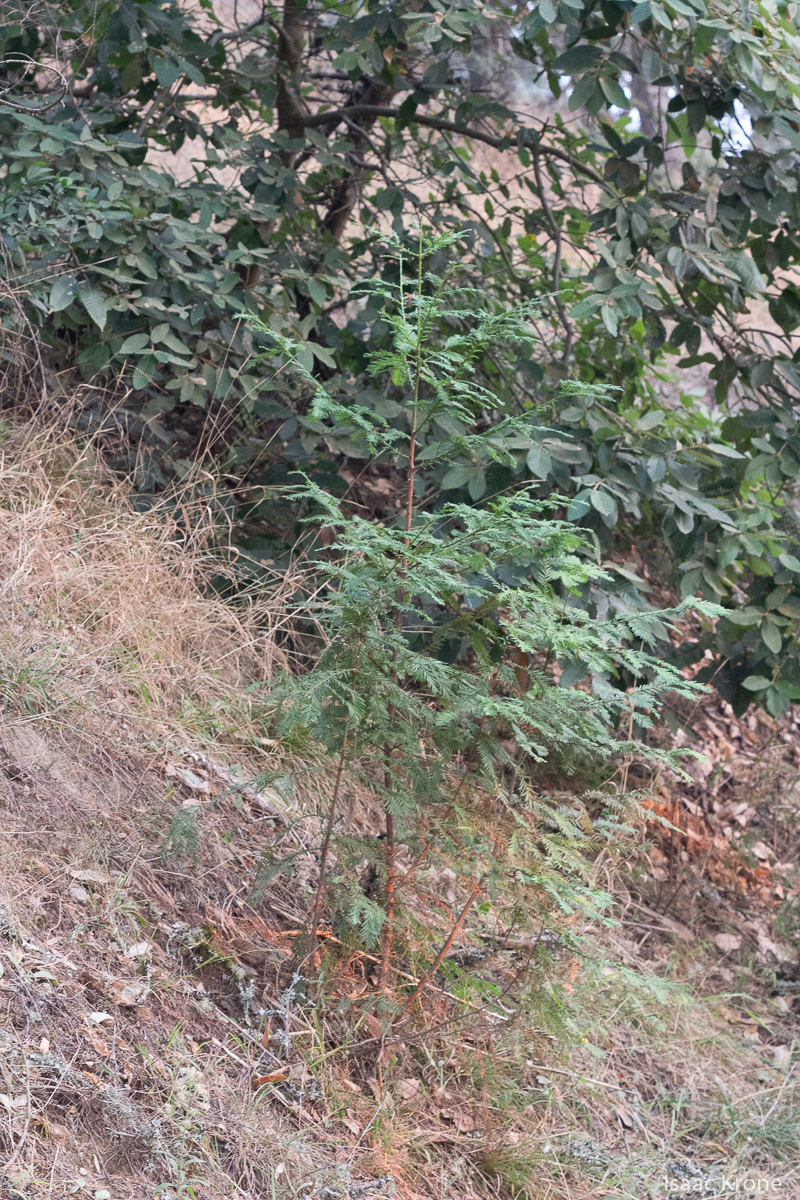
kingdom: Plantae
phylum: Tracheophyta
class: Pinopsida
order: Pinales
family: Cupressaceae
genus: Sequoia
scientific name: Sequoia sempervirens
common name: Coast redwood
